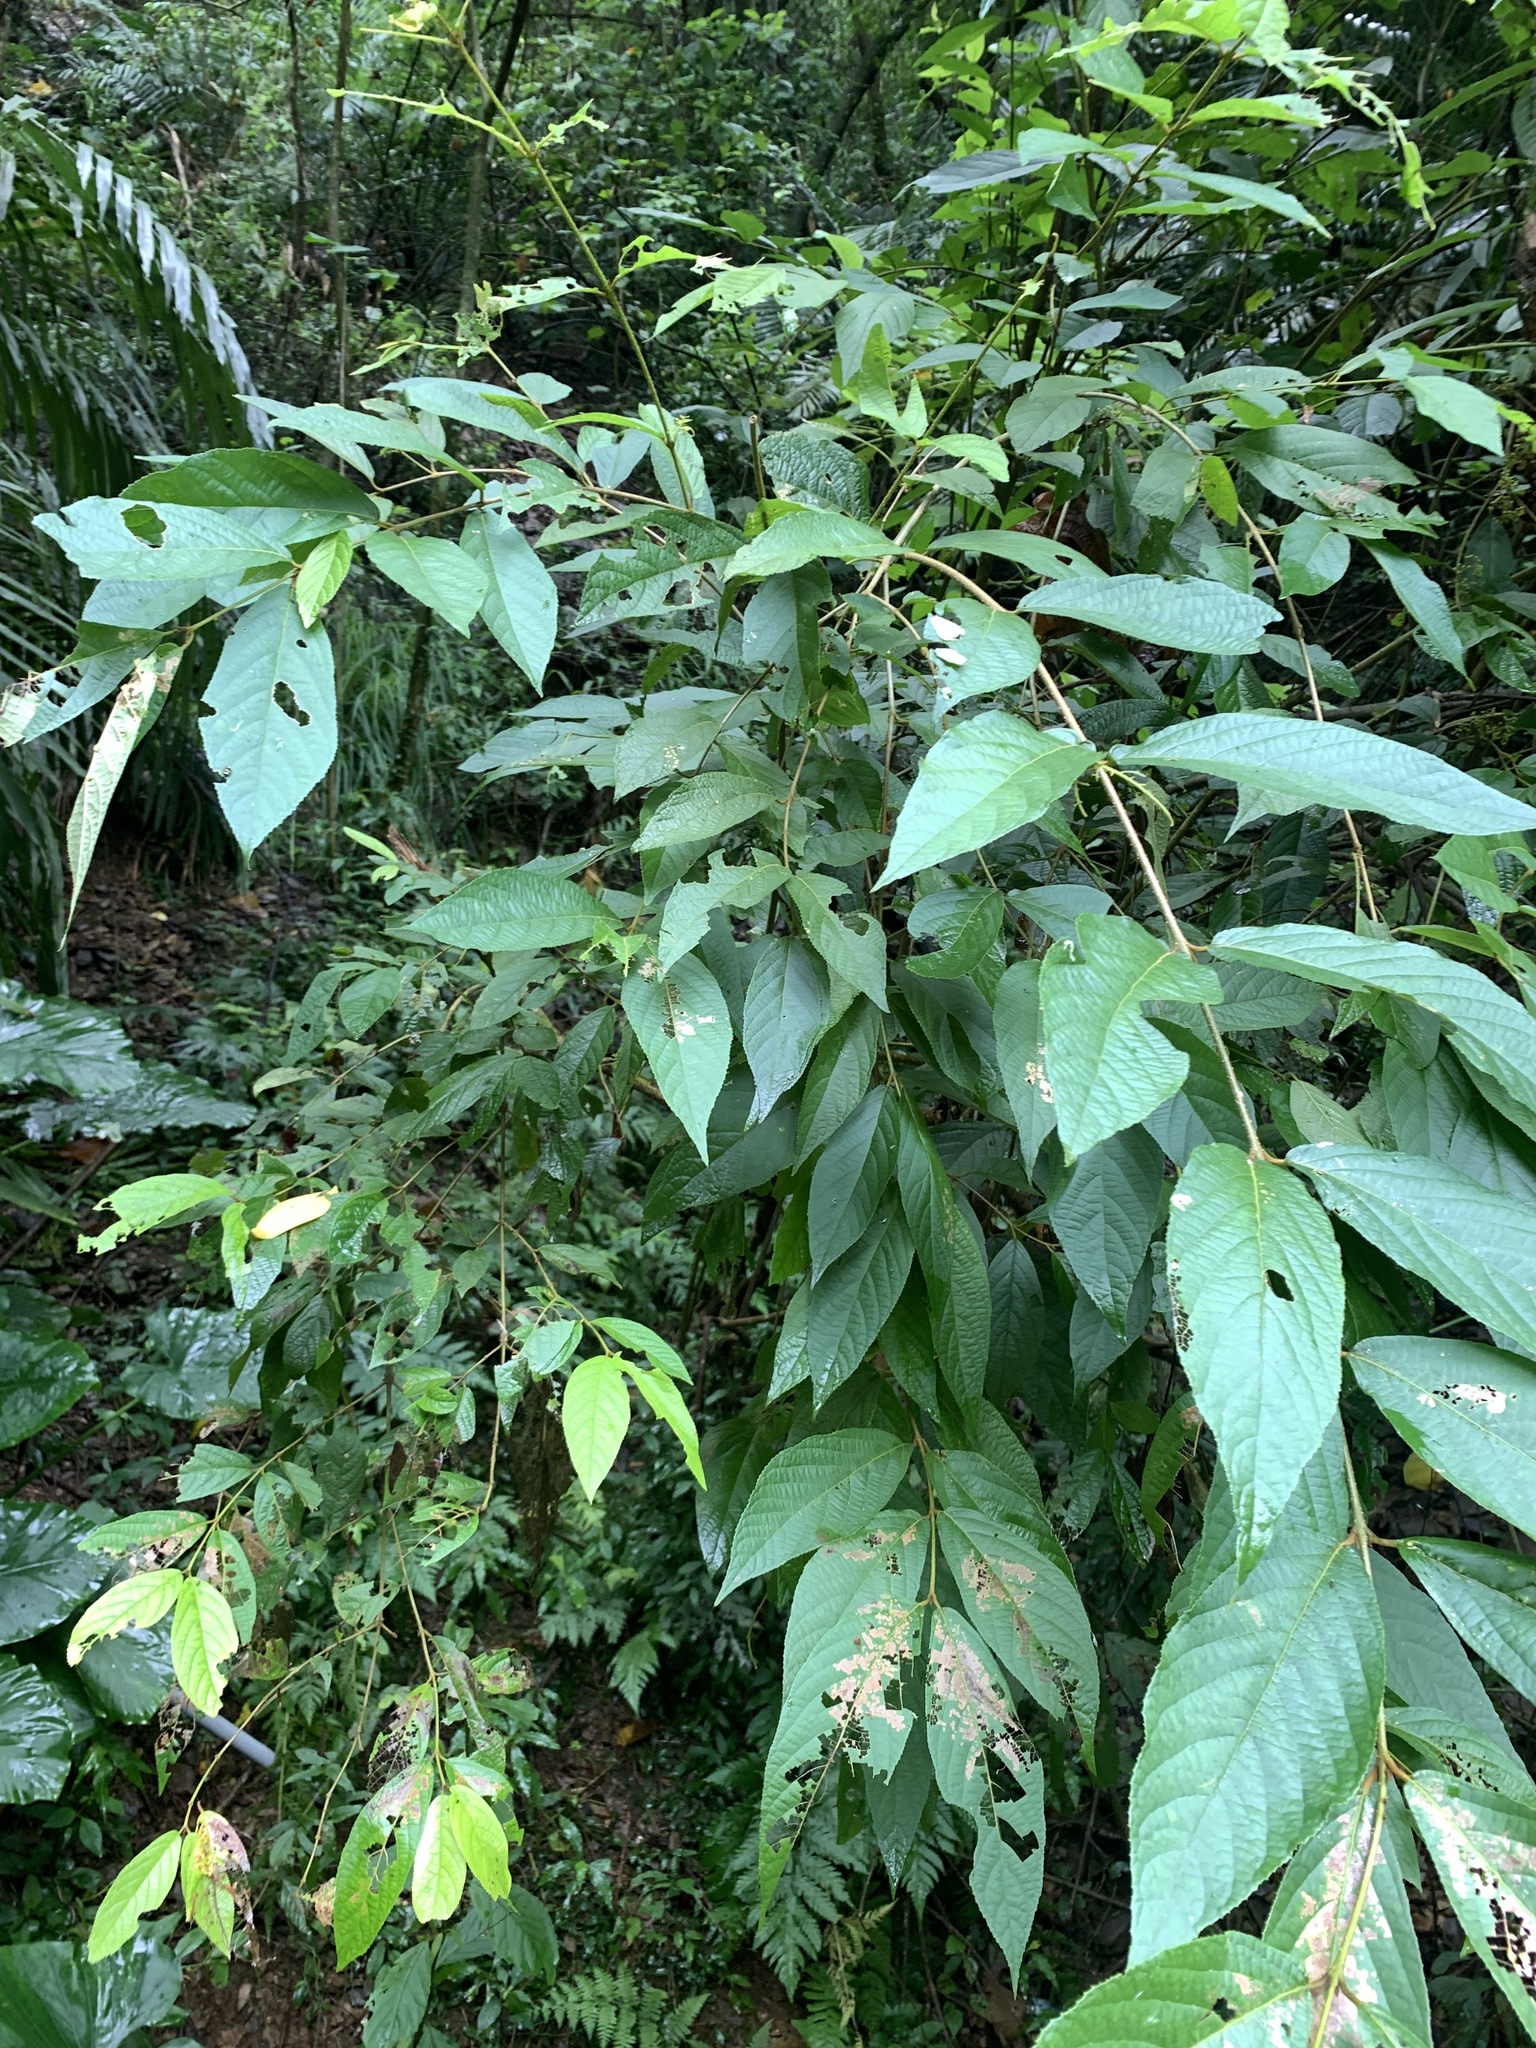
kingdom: Plantae
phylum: Tracheophyta
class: Magnoliopsida
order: Lamiales
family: Lamiaceae
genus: Callicarpa
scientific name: Callicarpa pedunculata
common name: Velvetleaf
